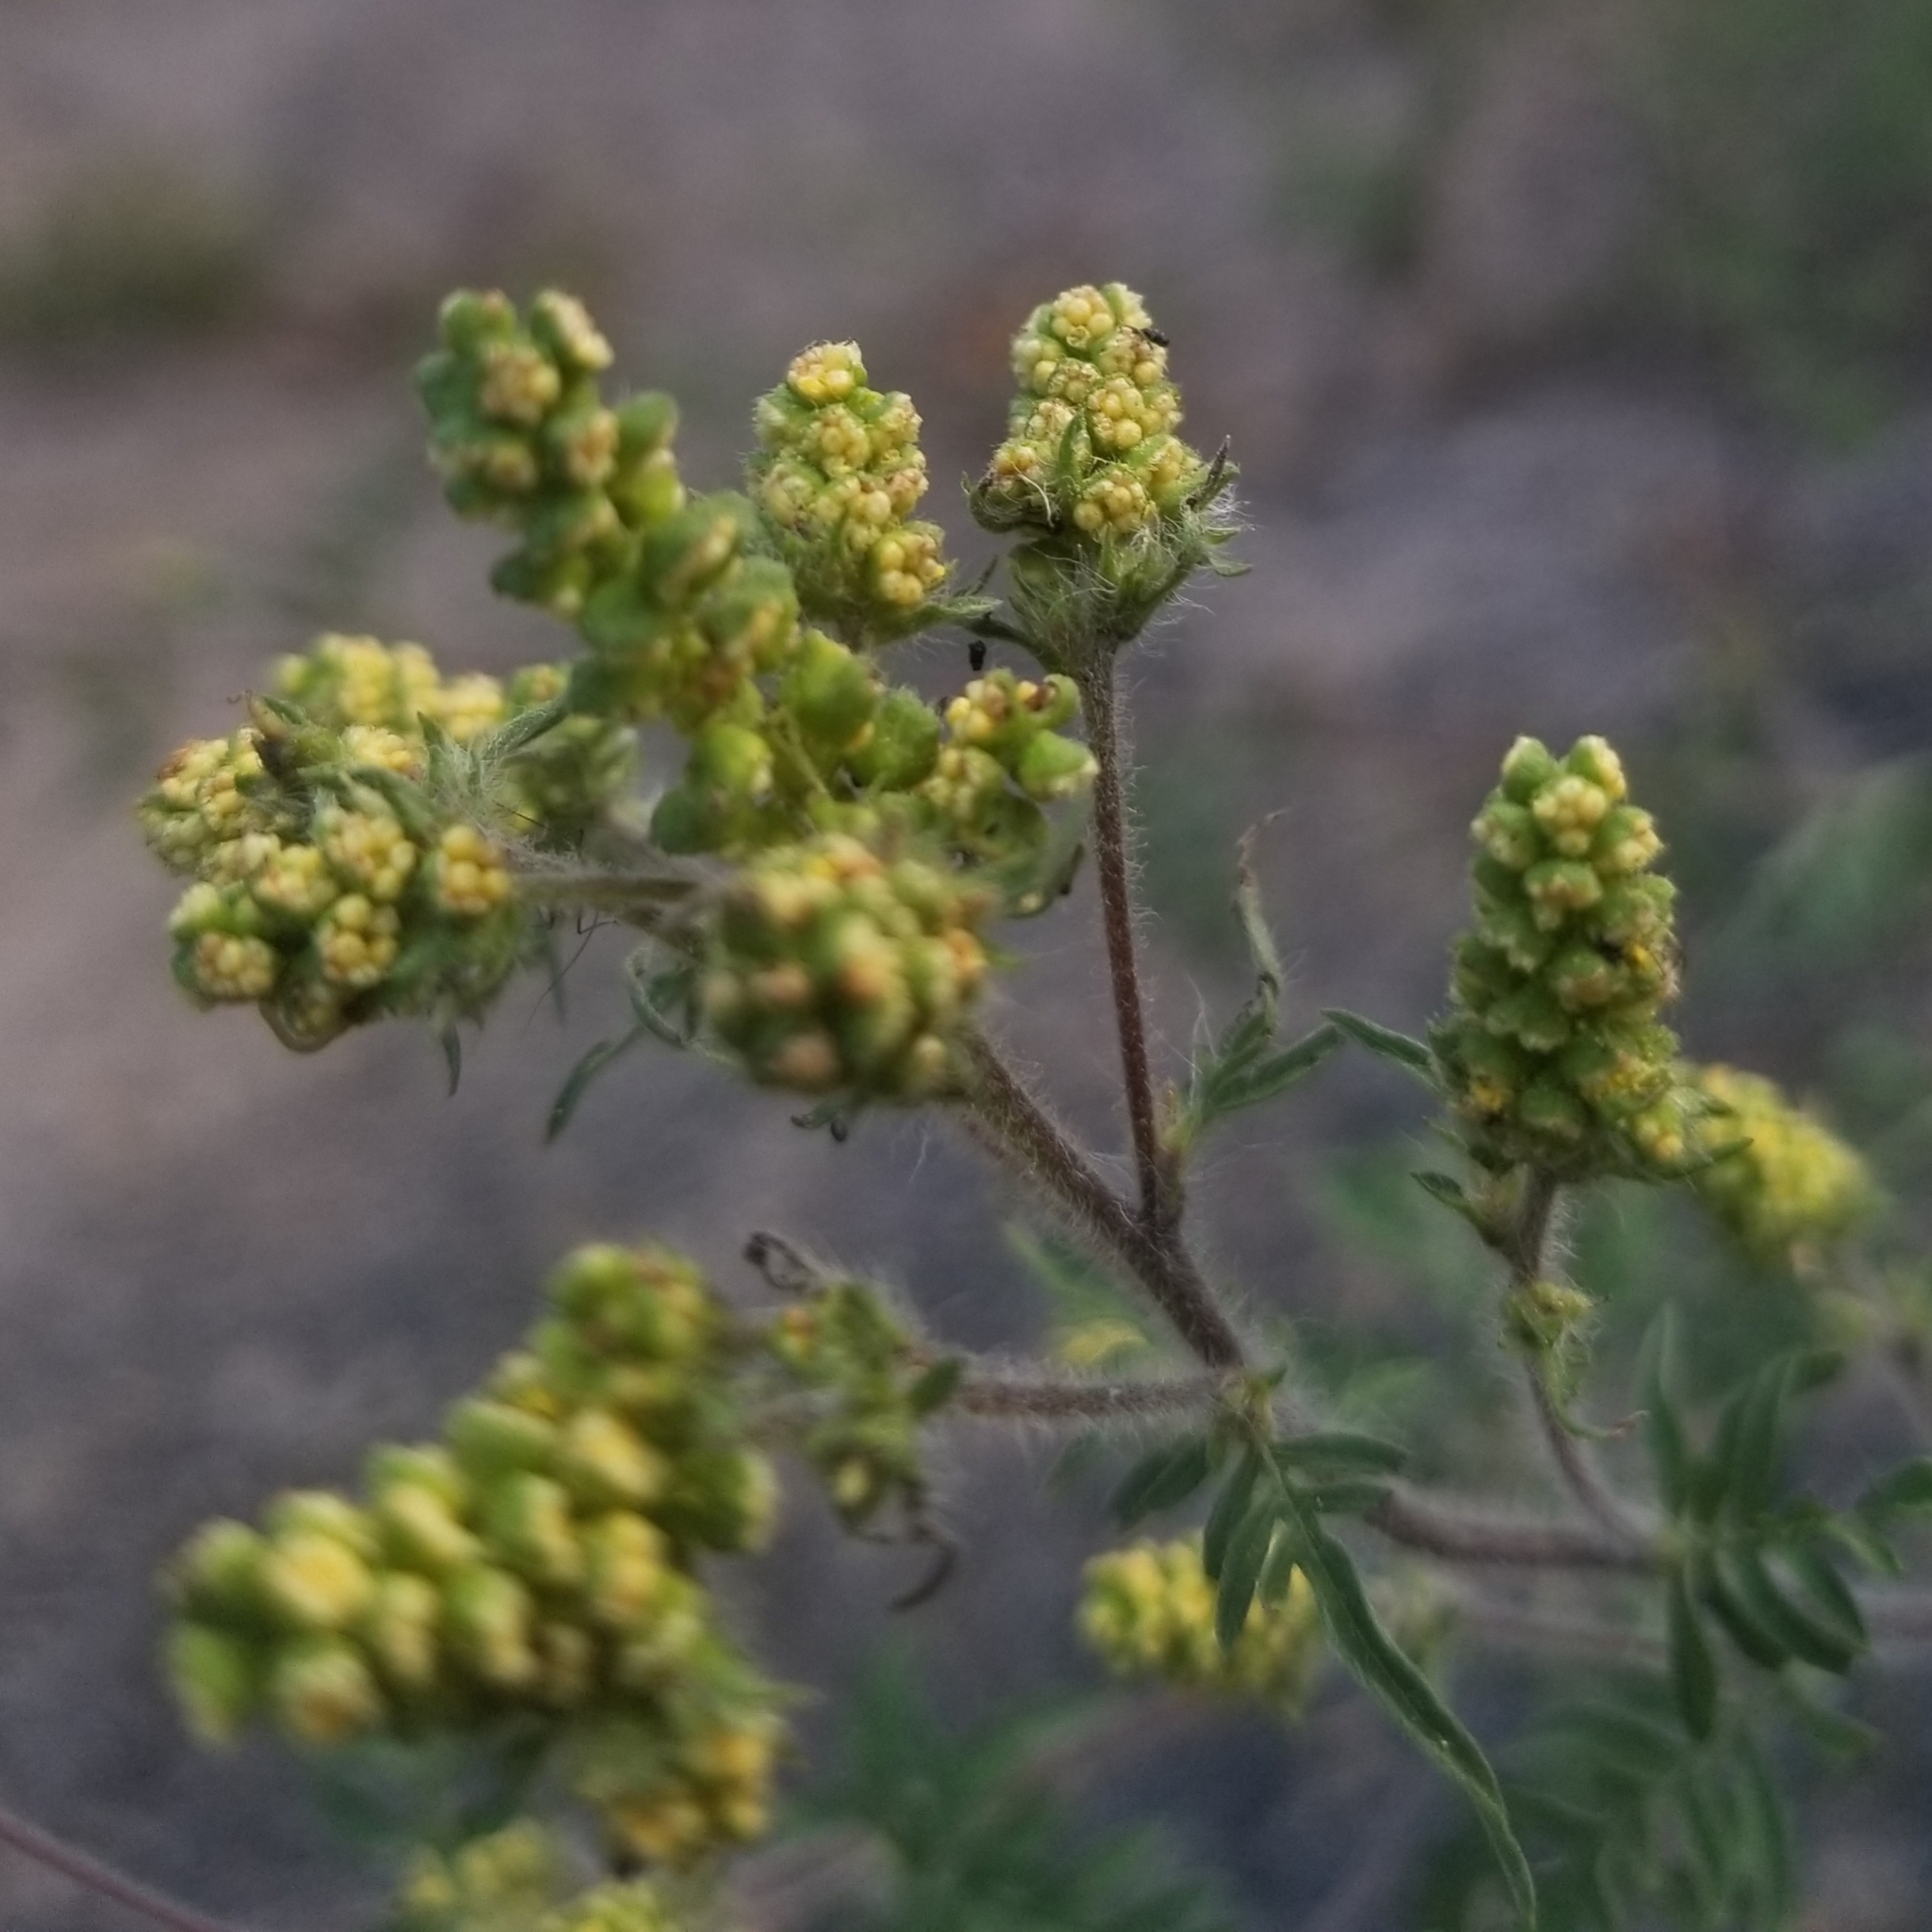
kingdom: Plantae
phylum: Tracheophyta
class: Magnoliopsida
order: Asterales
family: Asteraceae
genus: Ambrosia
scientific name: Ambrosia artemisiifolia
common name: Annual ragweed
